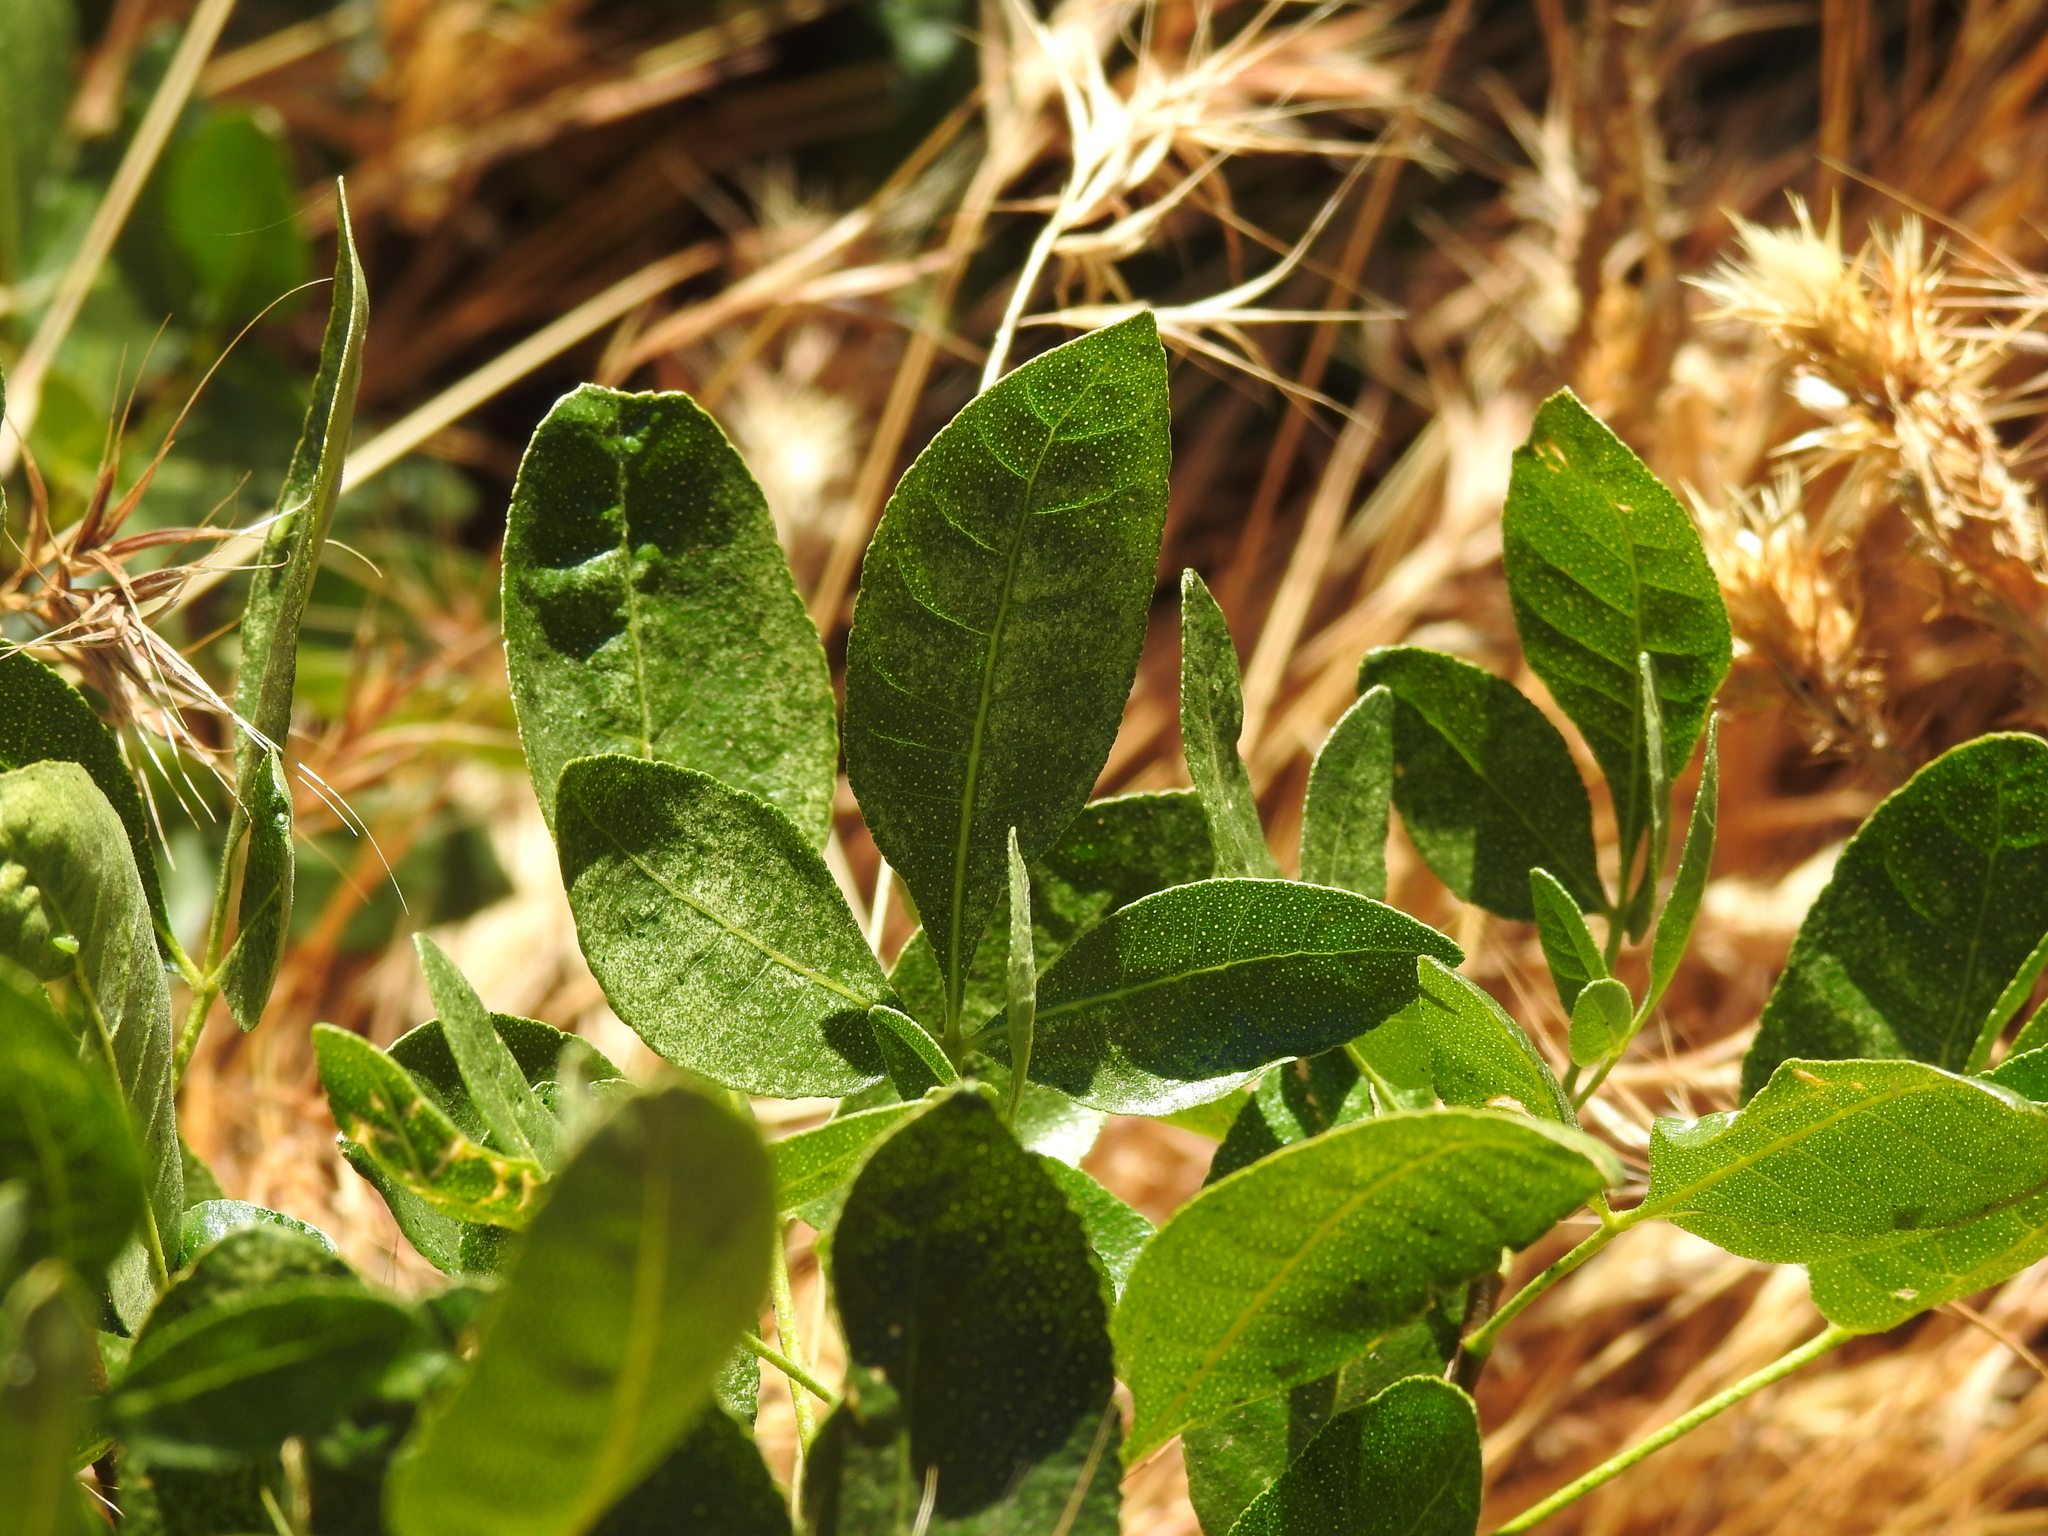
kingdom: Plantae
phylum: Tracheophyta
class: Magnoliopsida
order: Sapindales
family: Rutaceae
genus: Ptelea
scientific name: Ptelea crenulata
